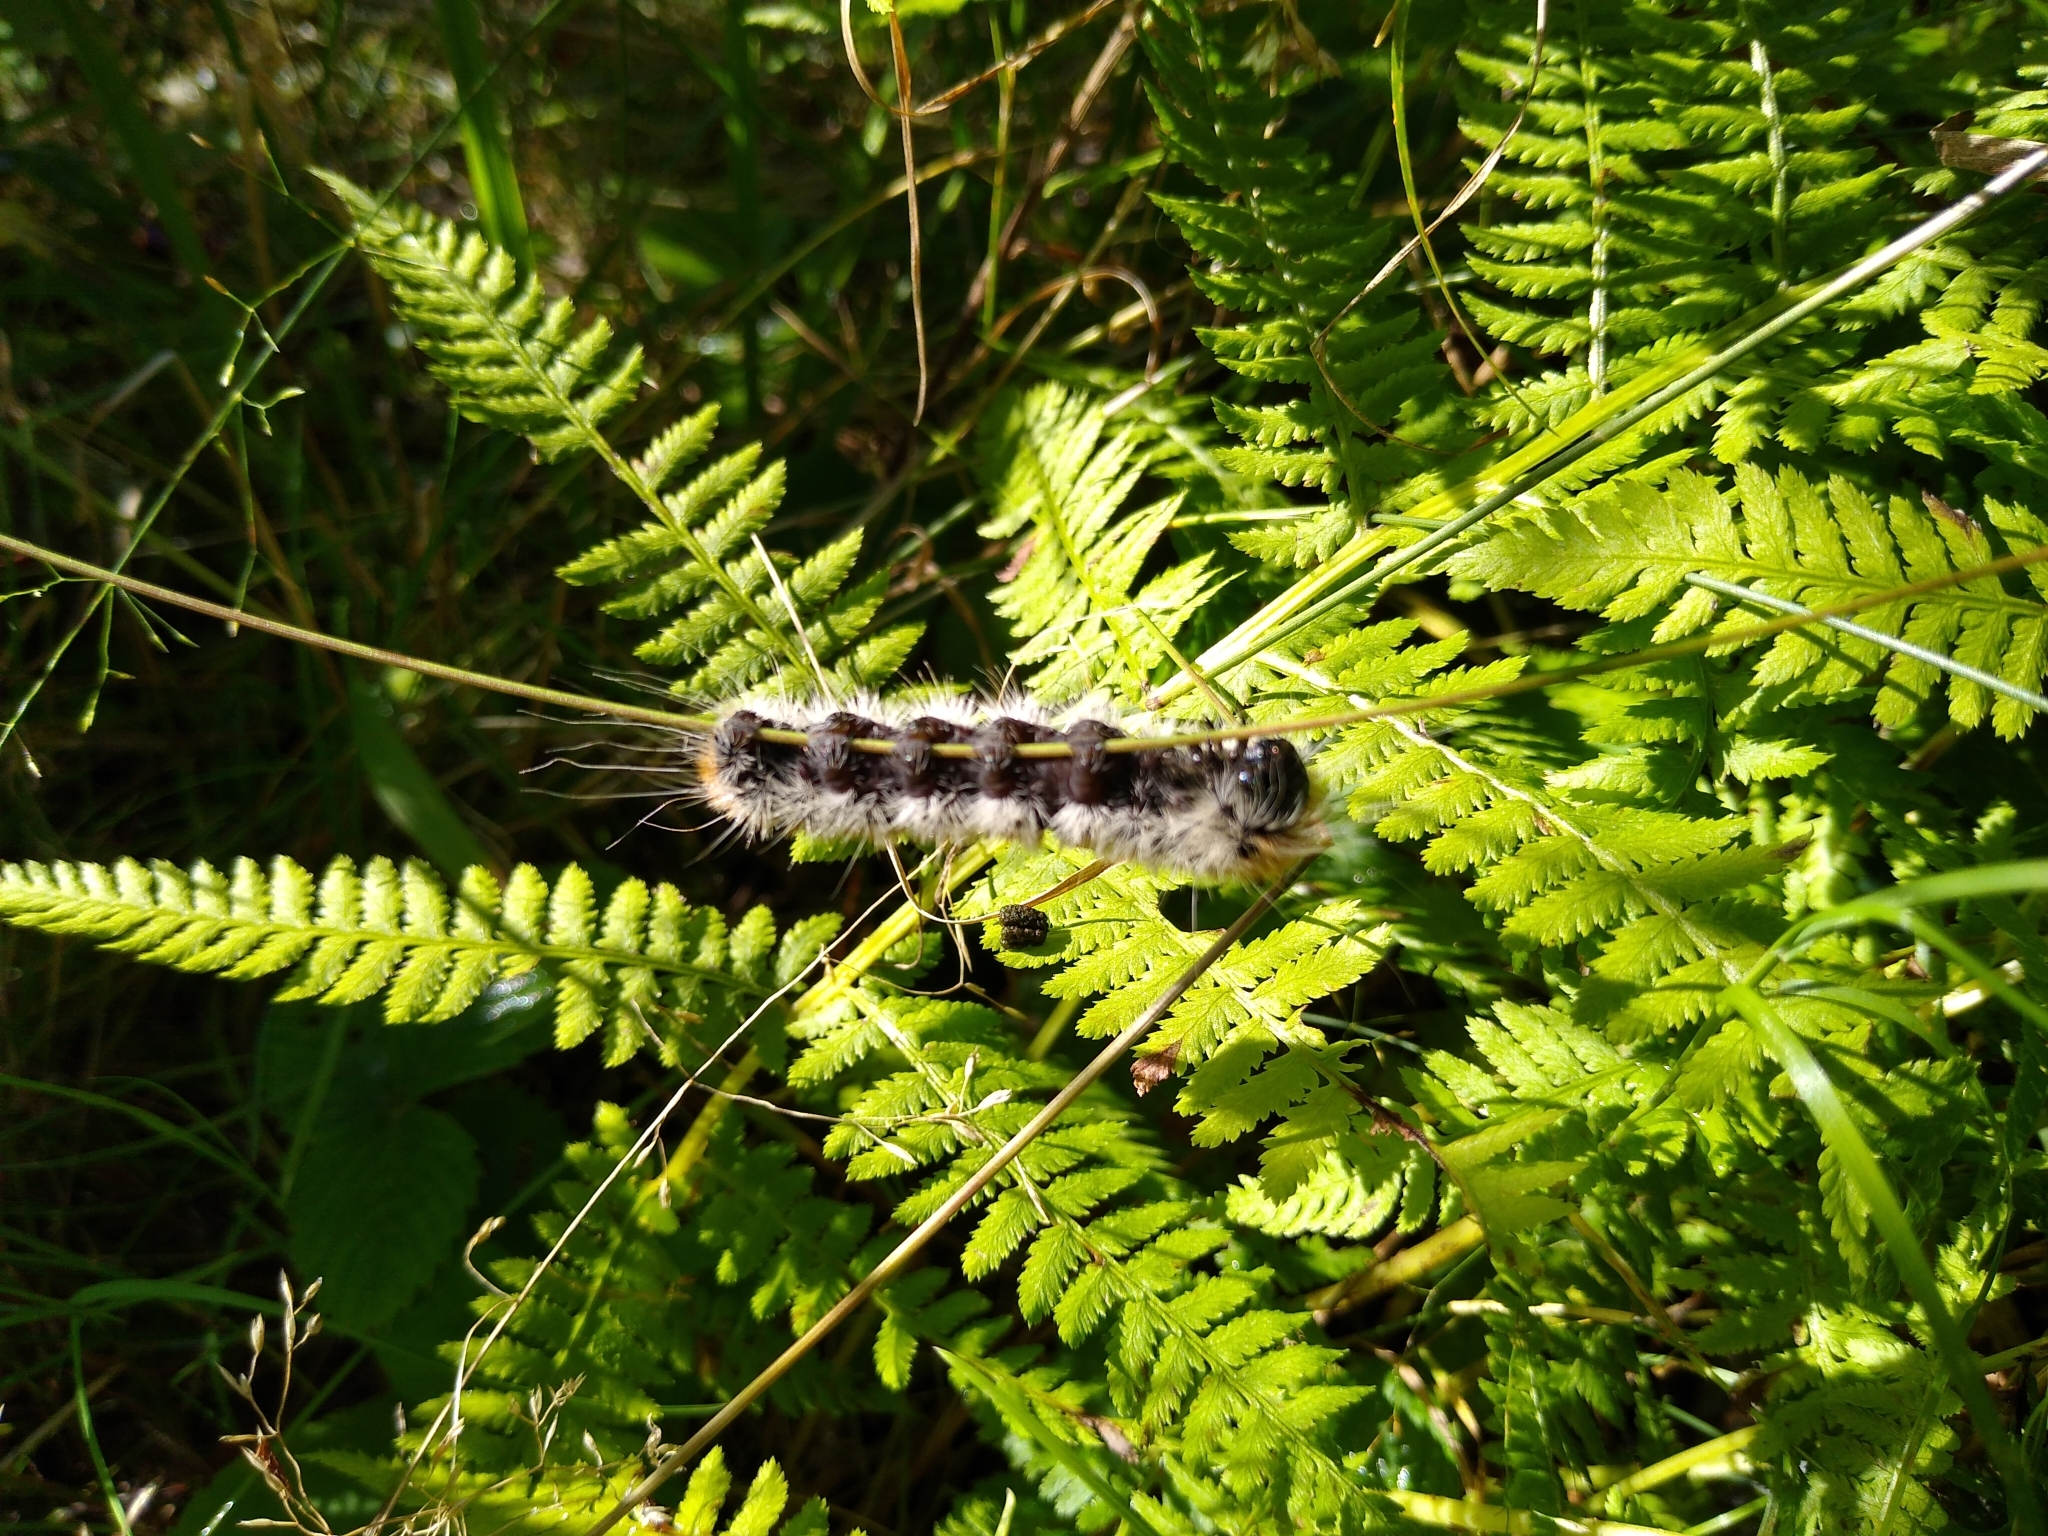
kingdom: Animalia
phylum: Arthropoda
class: Insecta
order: Lepidoptera
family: Noctuidae
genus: Acronicta
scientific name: Acronicta insita
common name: Large gray dagger
